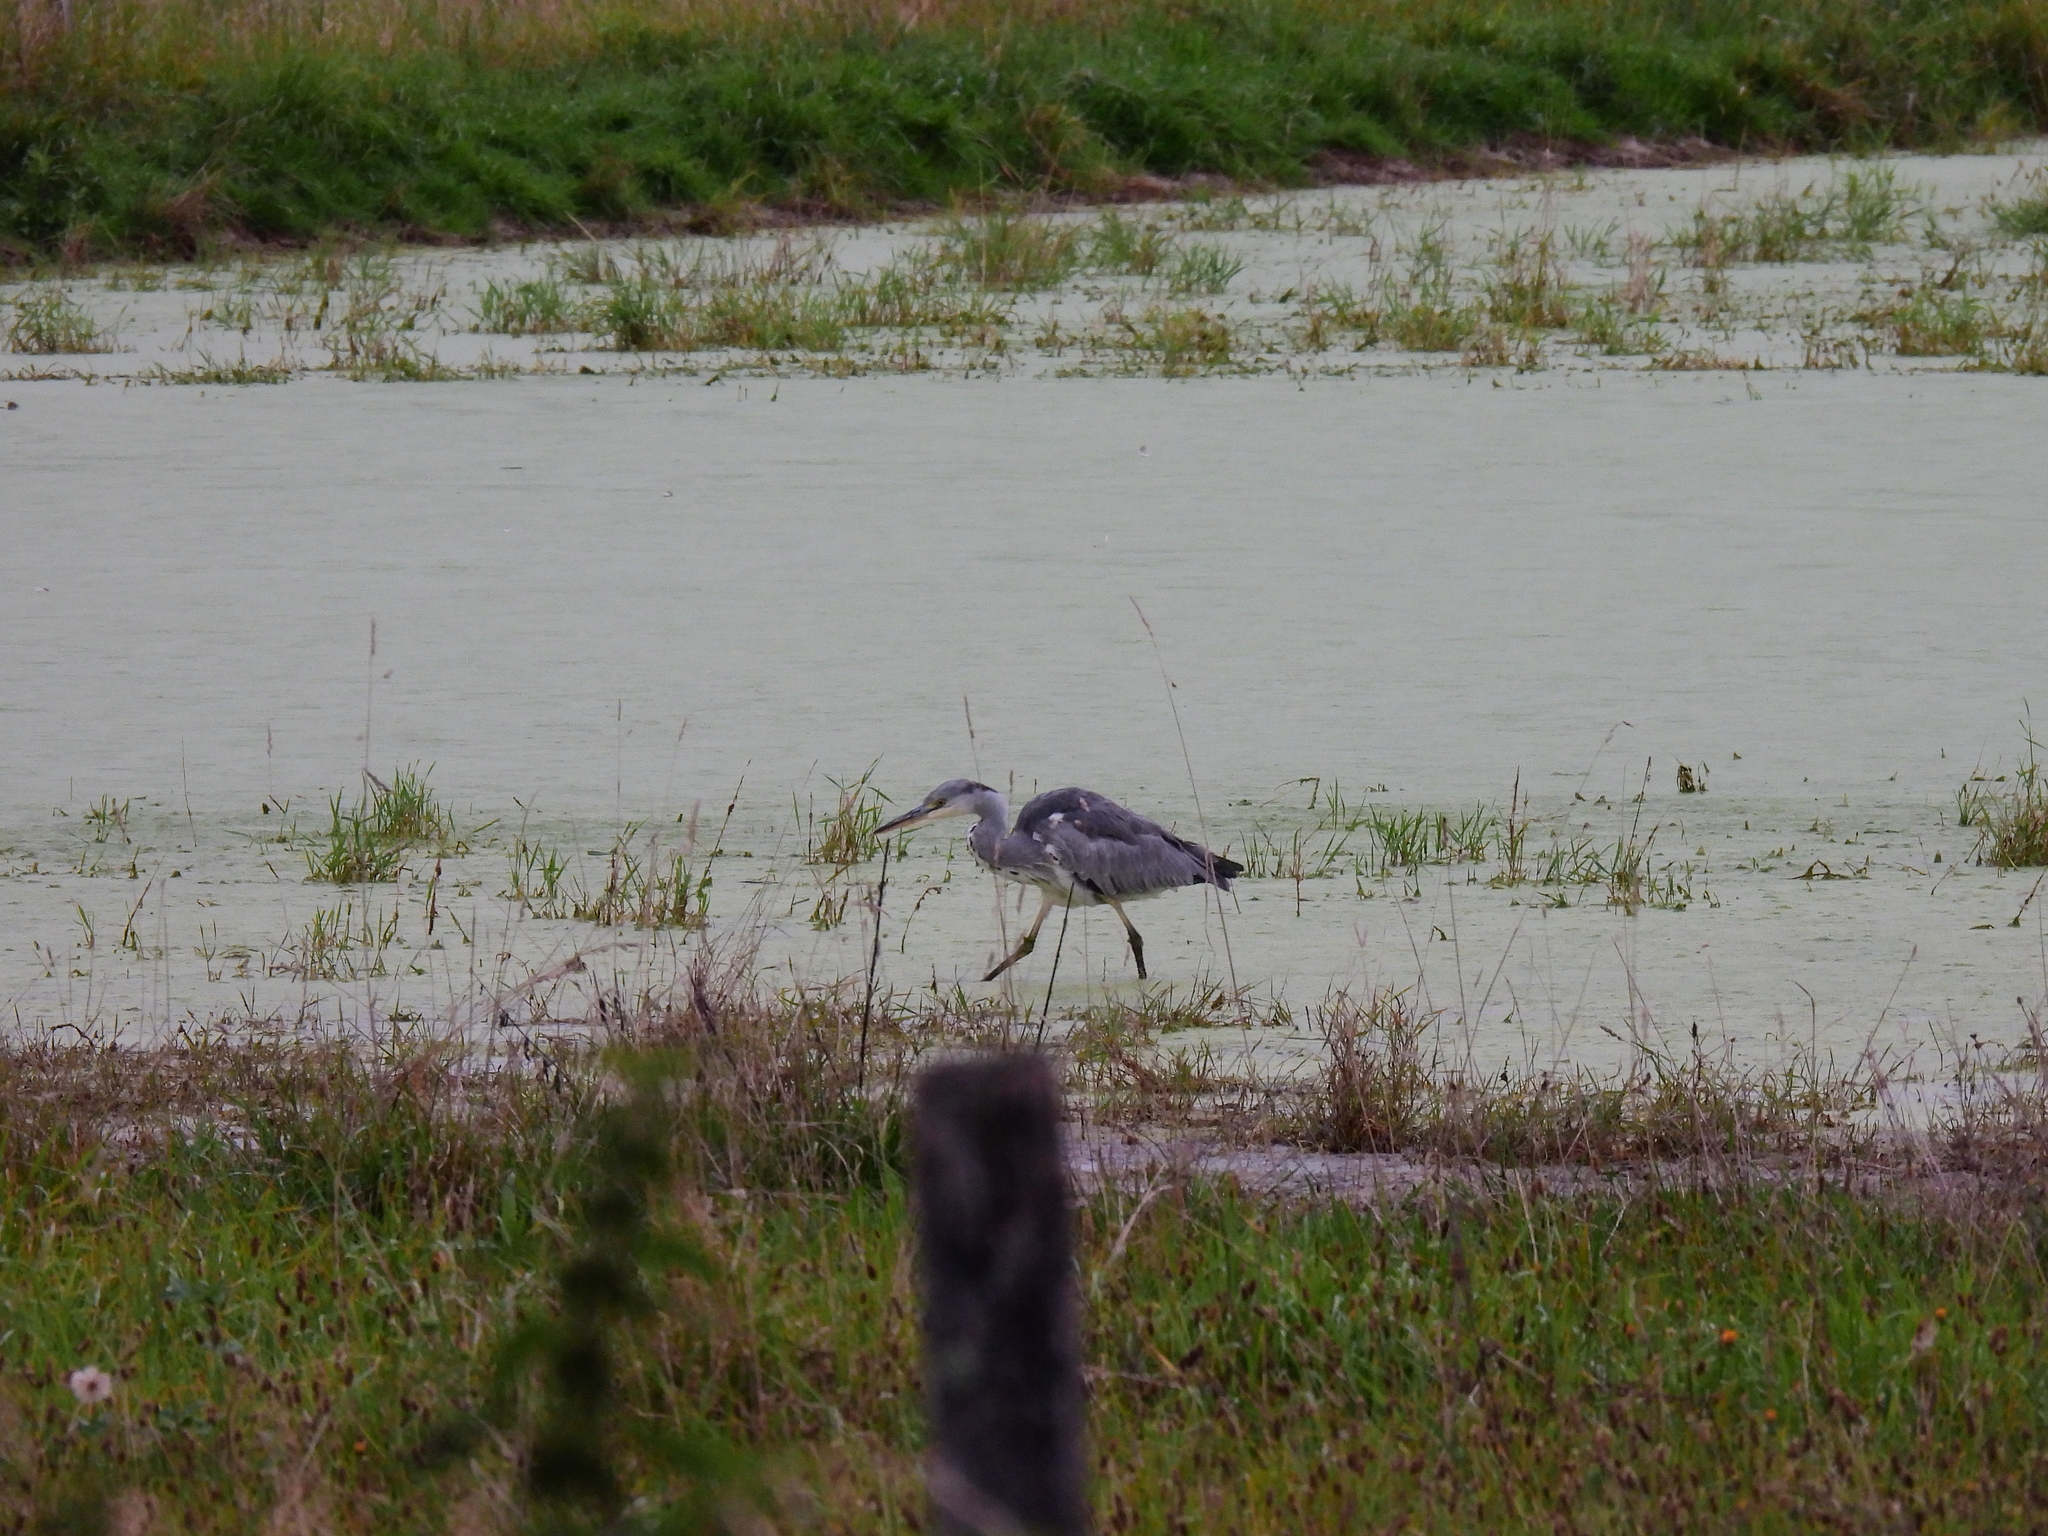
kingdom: Animalia
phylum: Chordata
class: Aves
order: Pelecaniformes
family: Ardeidae
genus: Ardea
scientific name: Ardea cinerea
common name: Grey heron
